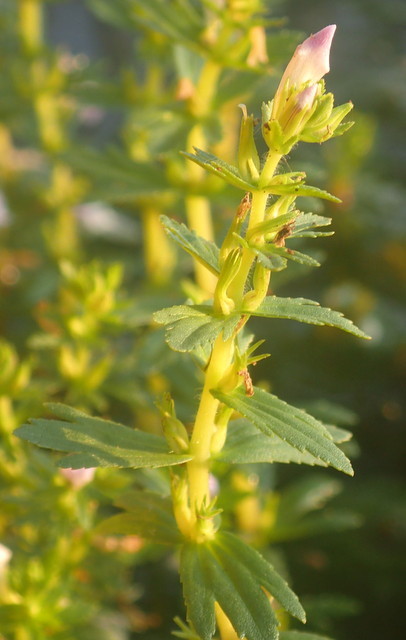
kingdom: Plantae
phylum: Tracheophyta
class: Magnoliopsida
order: Lamiales
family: Plantaginaceae
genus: Limnophila
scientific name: Limnophila sessiliflora
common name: Asian marshweed
